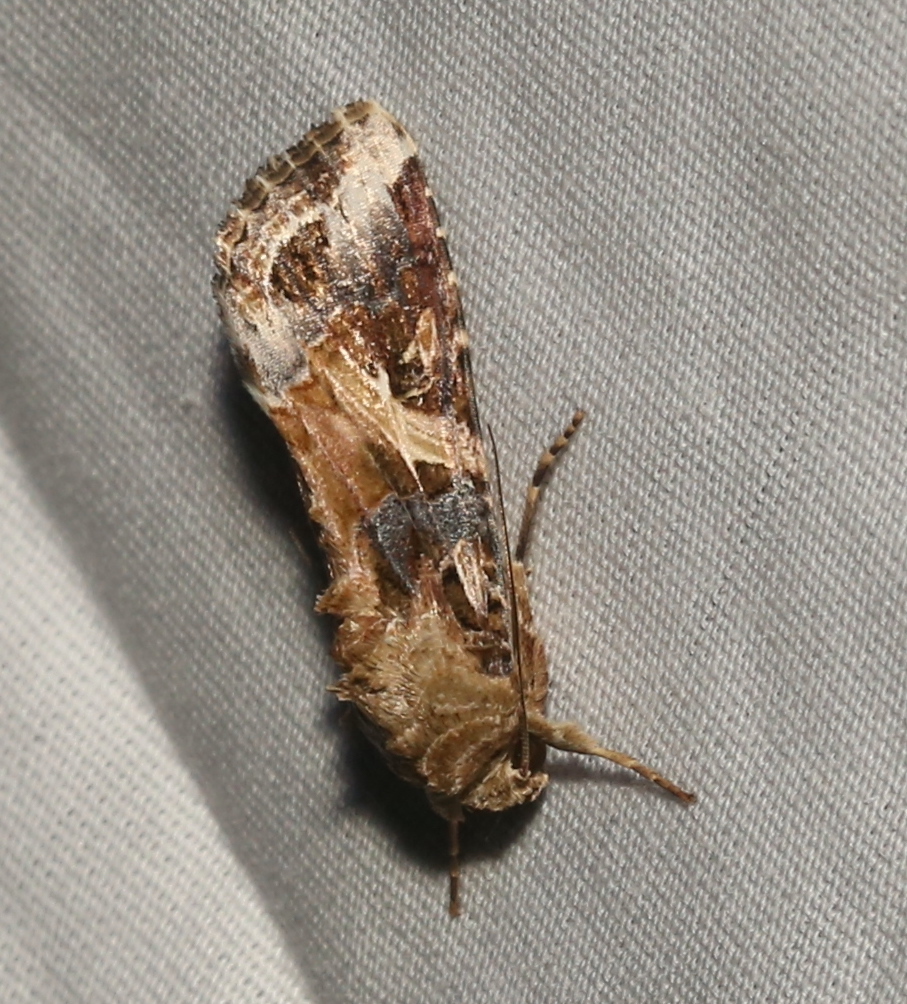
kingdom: Animalia
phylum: Arthropoda
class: Insecta
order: Lepidoptera
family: Noctuidae
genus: Spodoptera
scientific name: Spodoptera ornithogalli
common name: Yellow-striped armyworm
